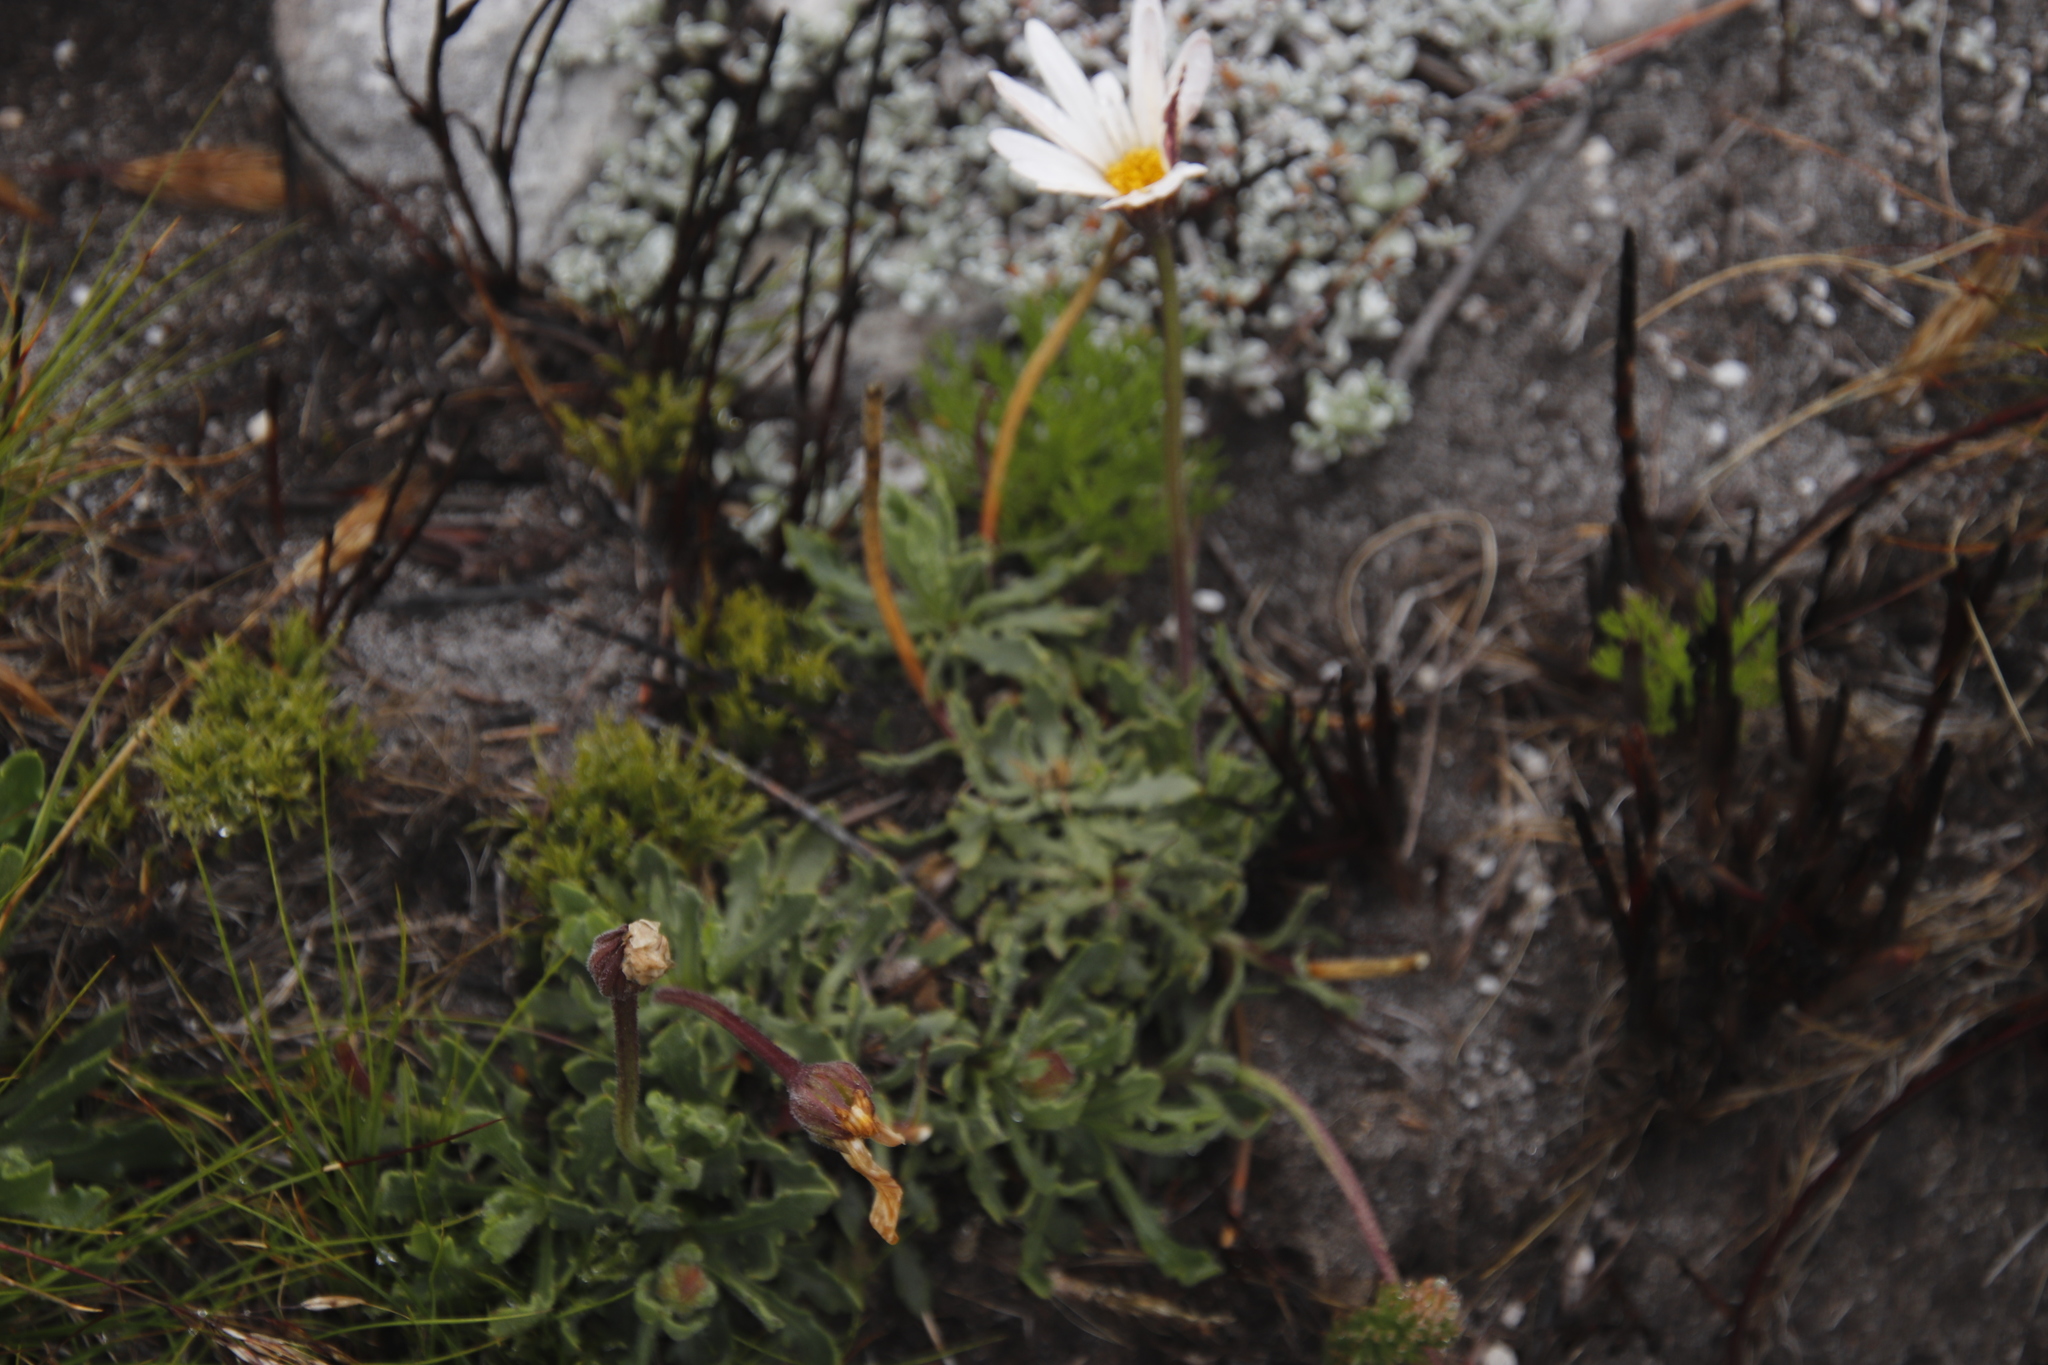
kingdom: Plantae
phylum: Tracheophyta
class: Magnoliopsida
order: Asterales
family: Asteraceae
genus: Dimorphotheca
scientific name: Dimorphotheca montana
